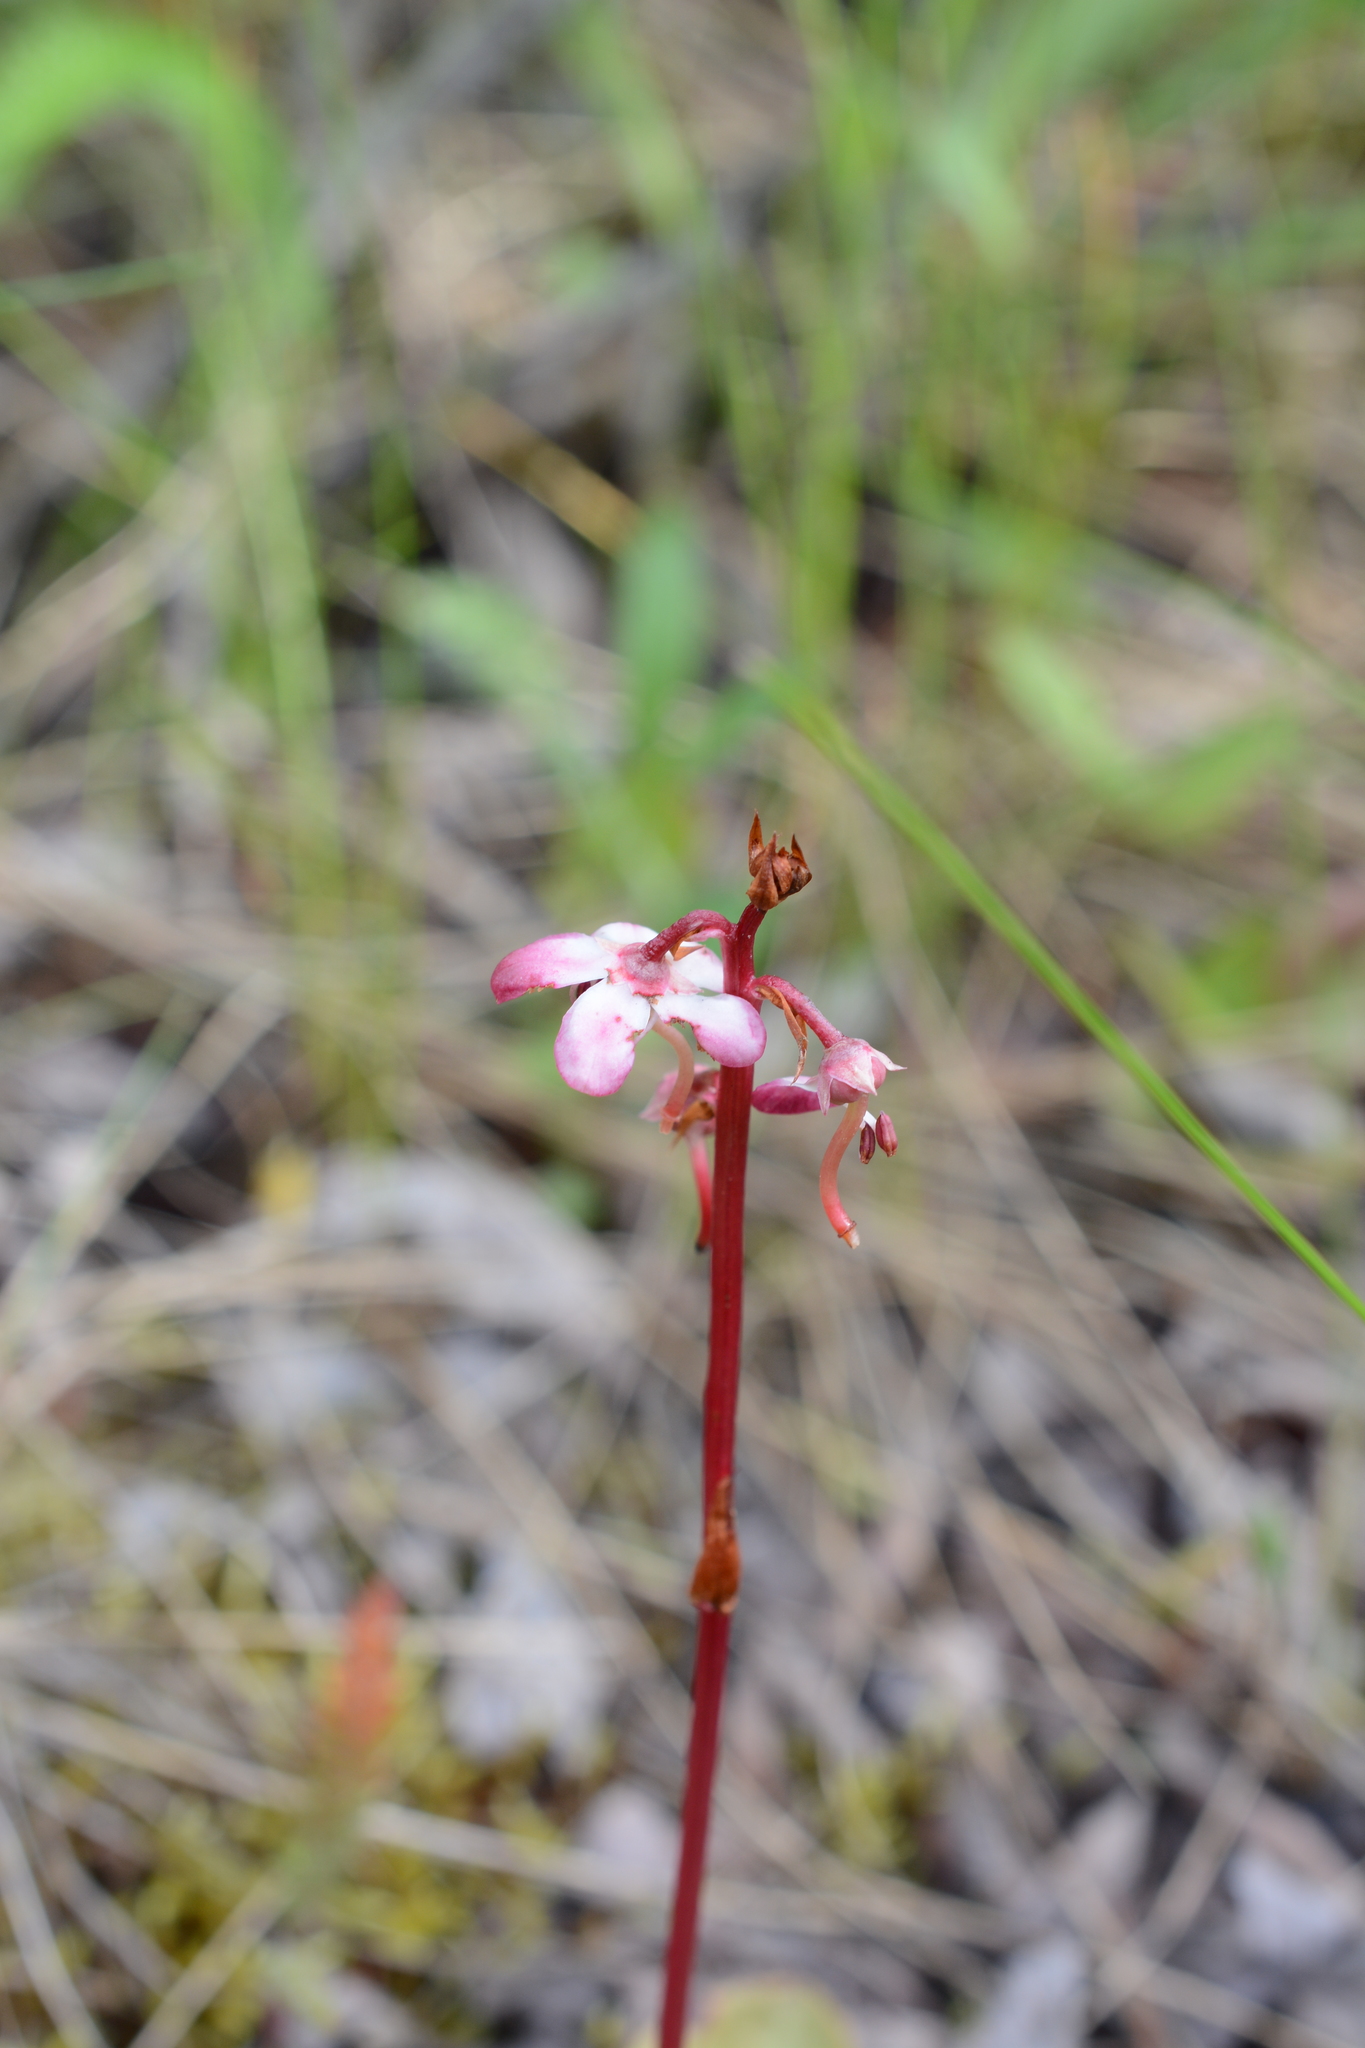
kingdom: Plantae
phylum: Tracheophyta
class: Magnoliopsida
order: Ericales
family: Ericaceae
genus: Pyrola
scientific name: Pyrola asarifolia
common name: Bog wintergreen
